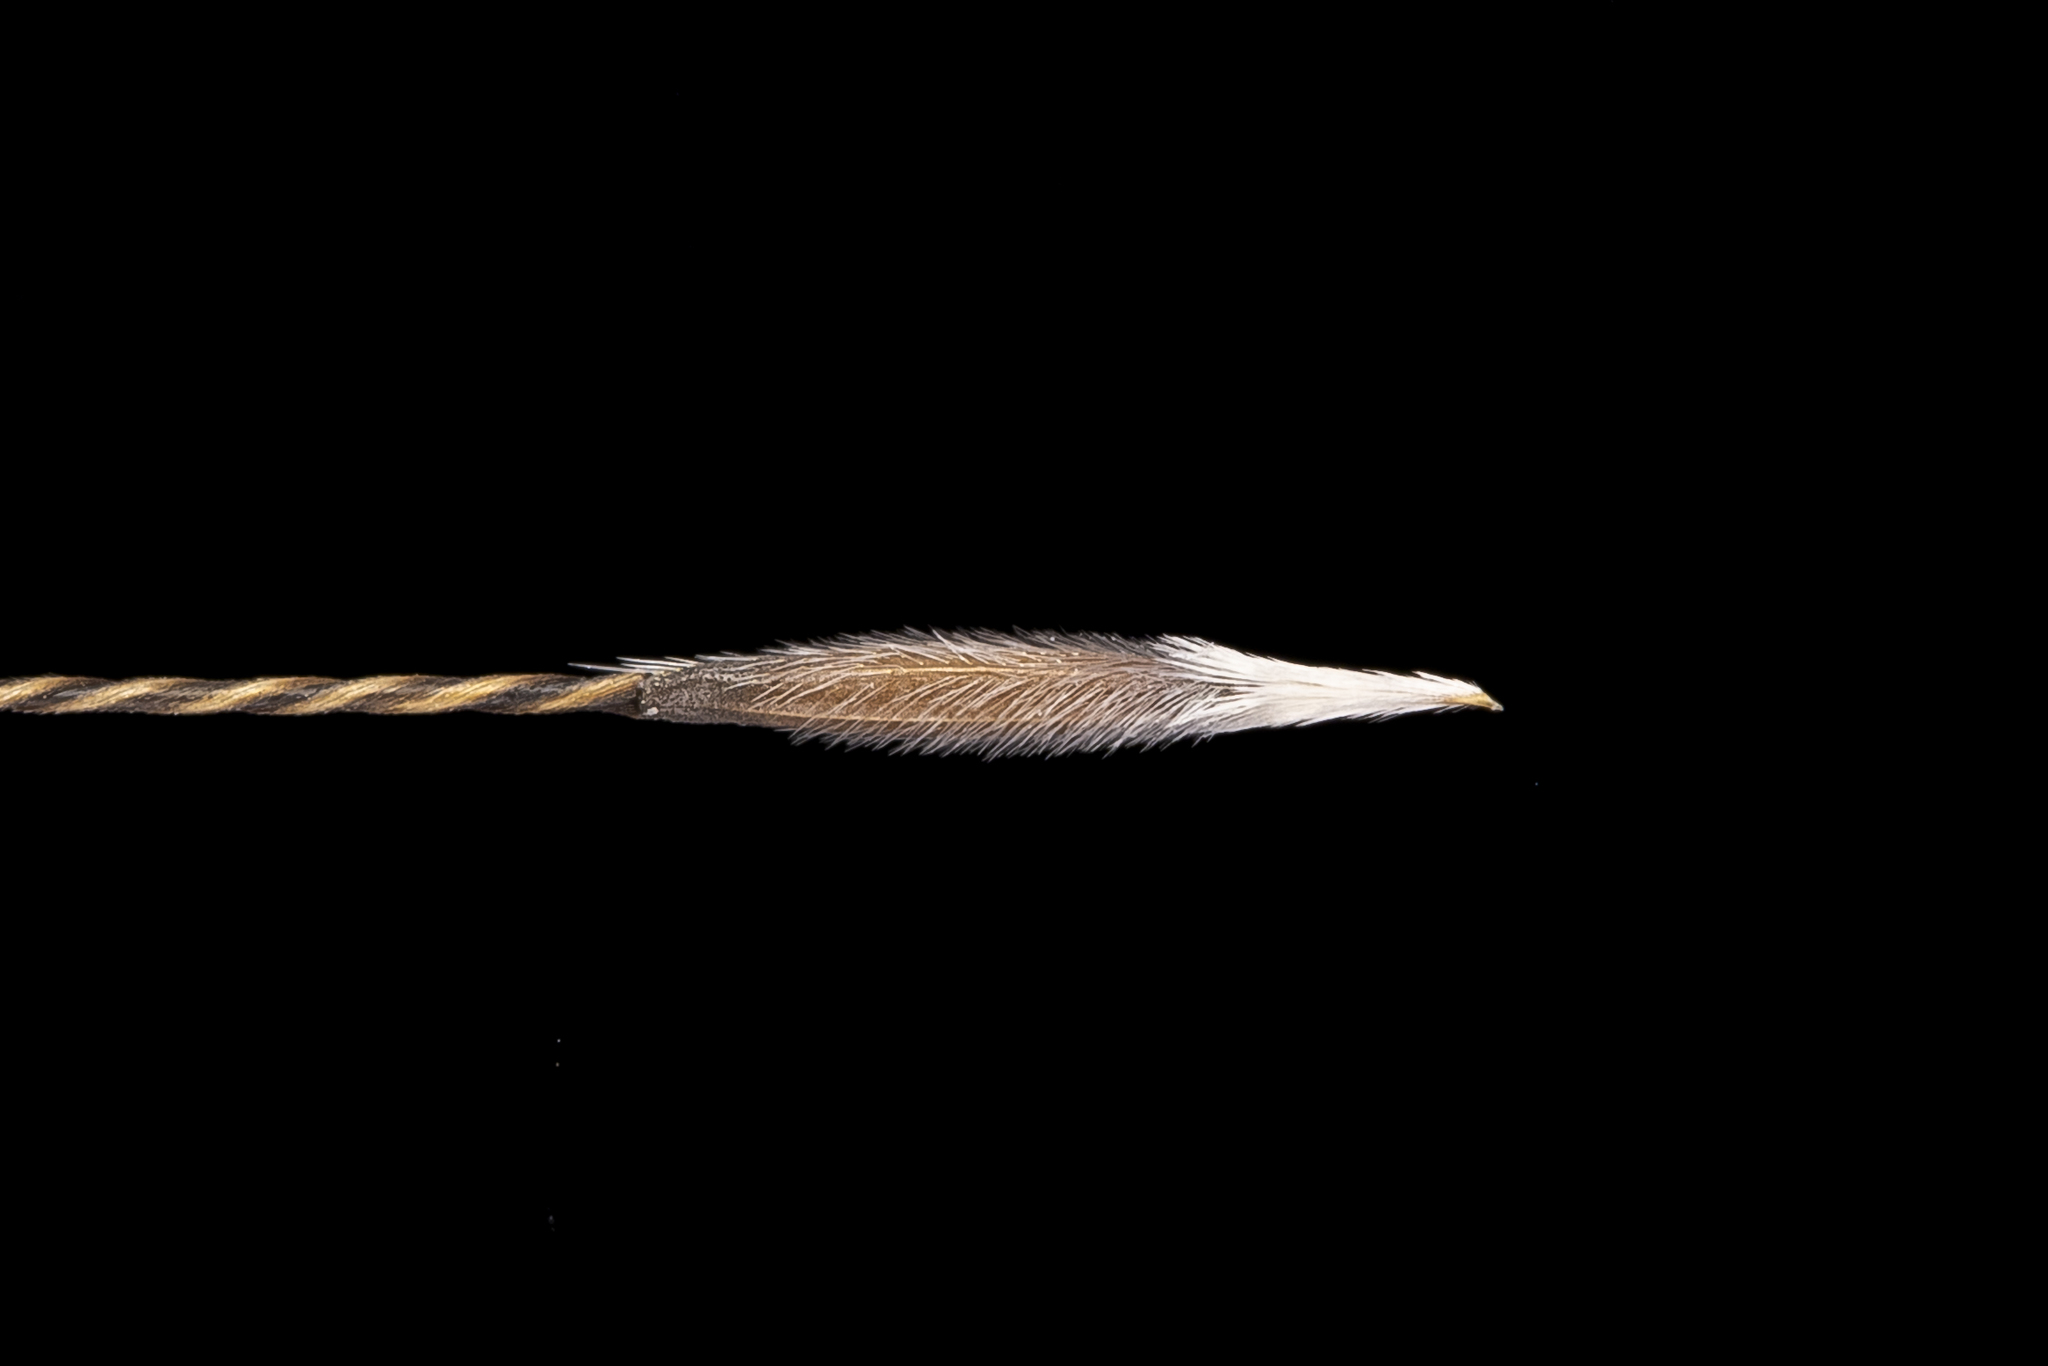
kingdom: Plantae
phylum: Tracheophyta
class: Liliopsida
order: Poales
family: Poaceae
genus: Austrostipa
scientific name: Austrostipa scabra
